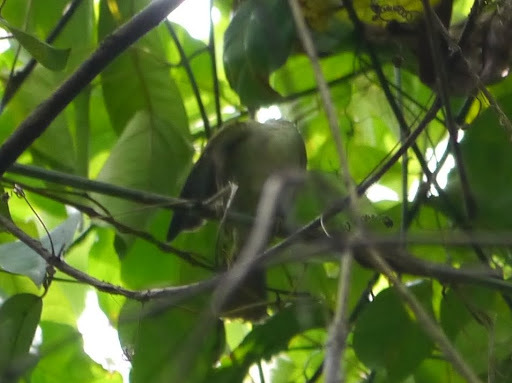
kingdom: Animalia
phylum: Chordata
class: Aves
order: Passeriformes
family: Cettiidae
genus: Hylia
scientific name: Hylia prasina
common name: Green hylia
